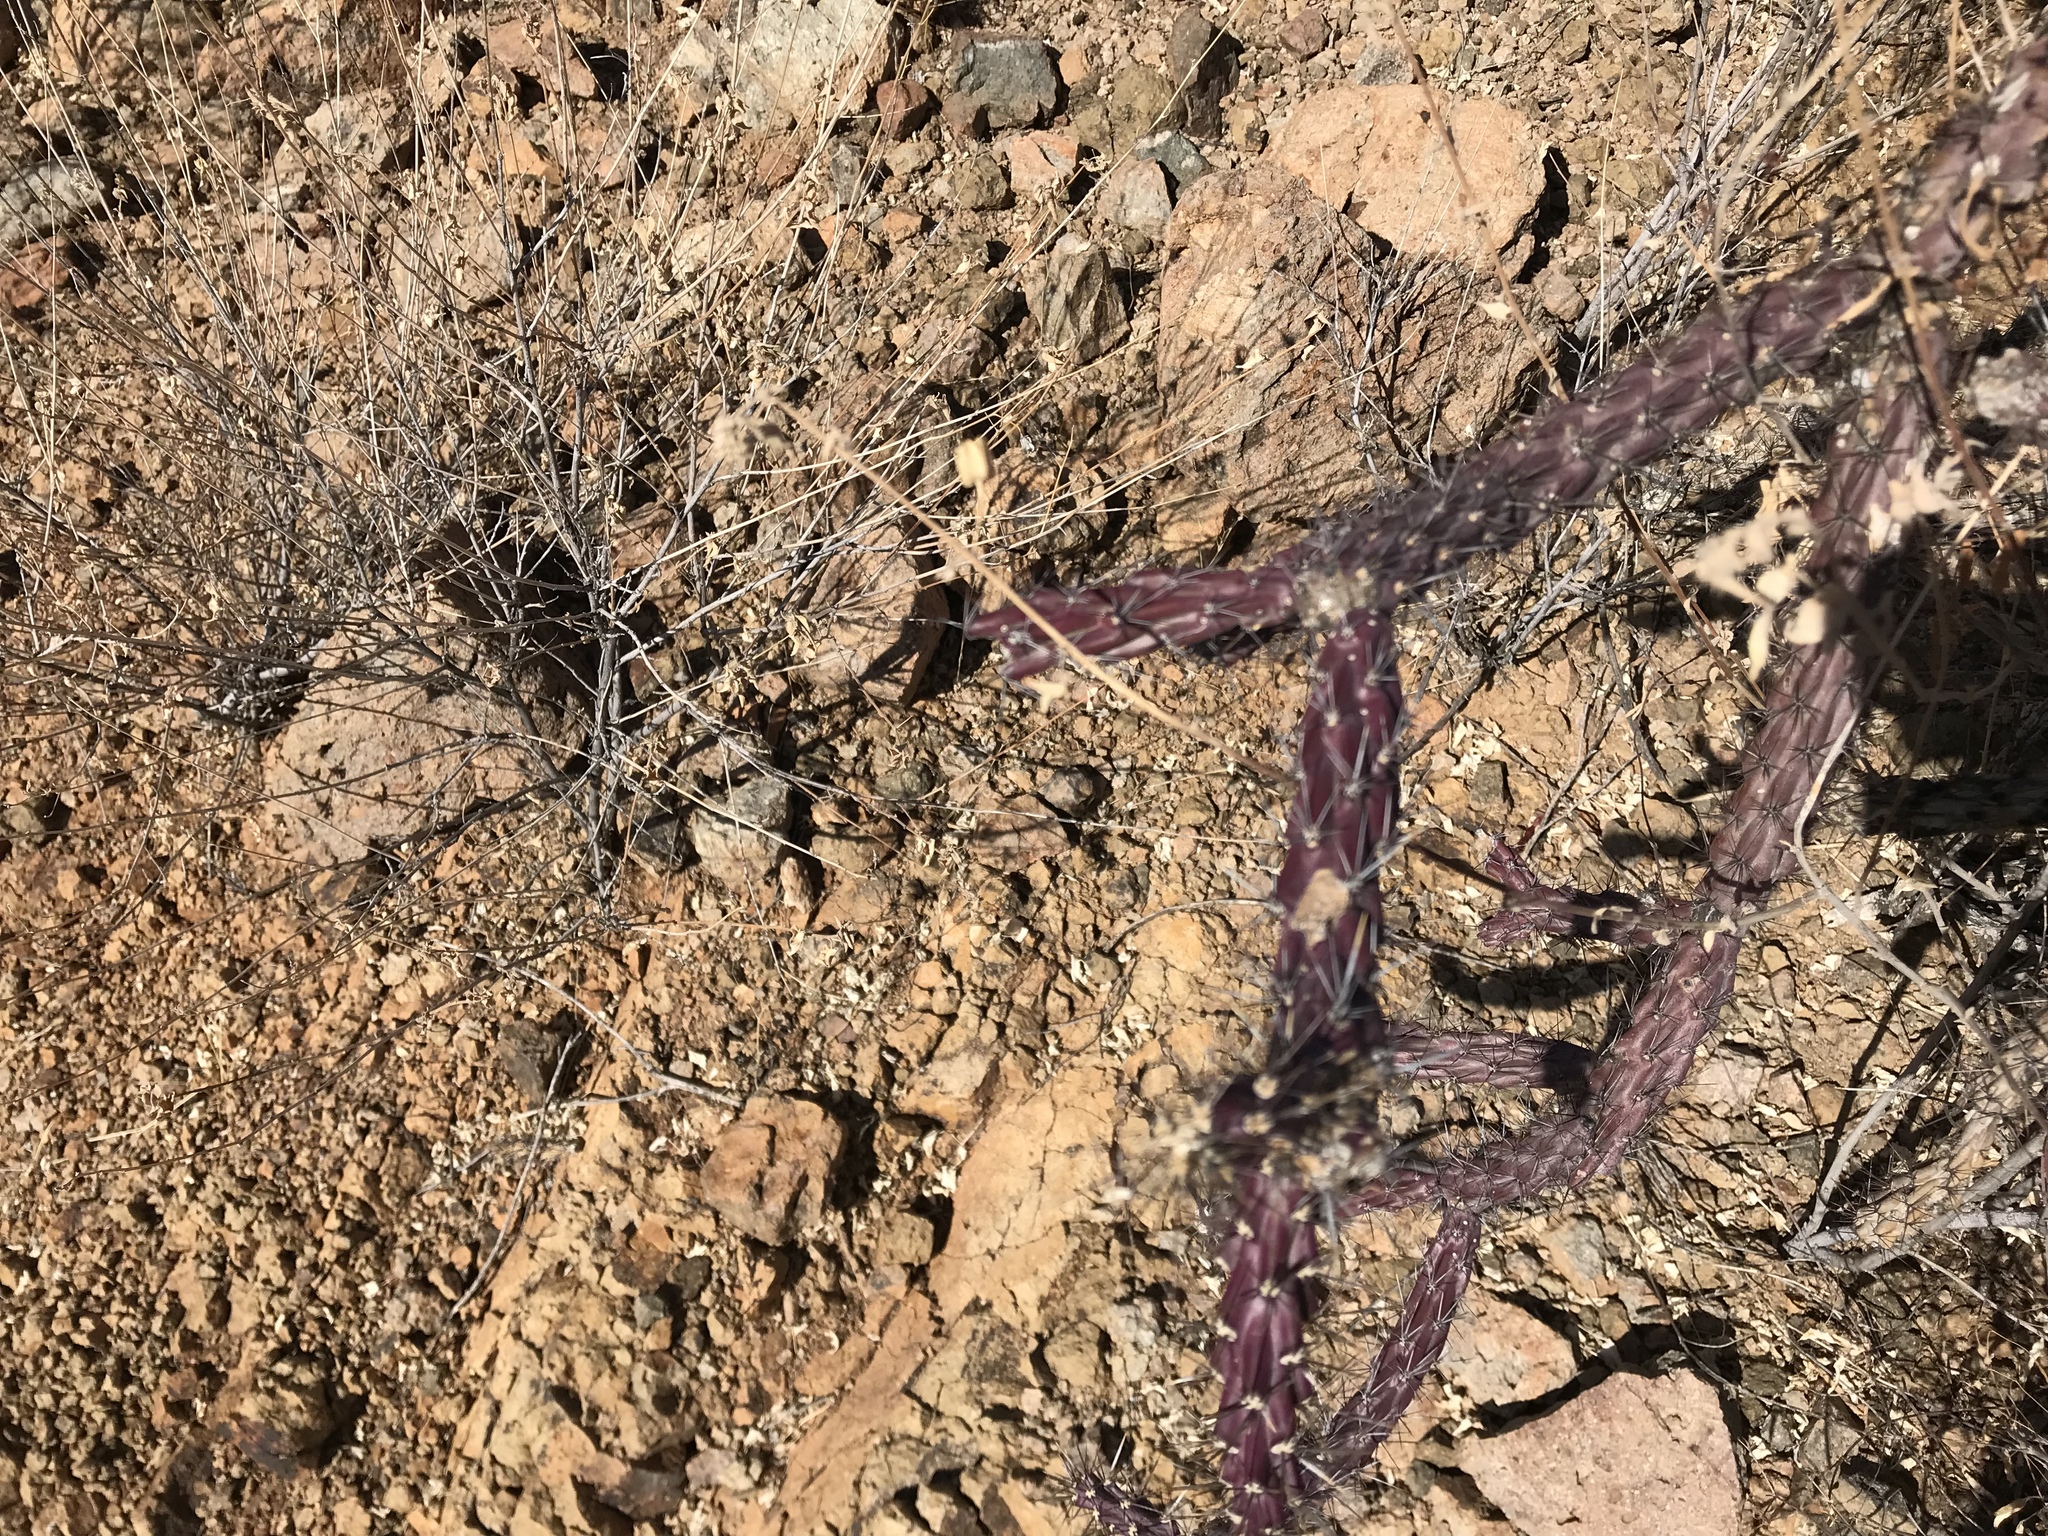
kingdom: Plantae
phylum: Tracheophyta
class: Magnoliopsida
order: Caryophyllales
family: Cactaceae
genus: Cylindropuntia
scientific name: Cylindropuntia thurberi
